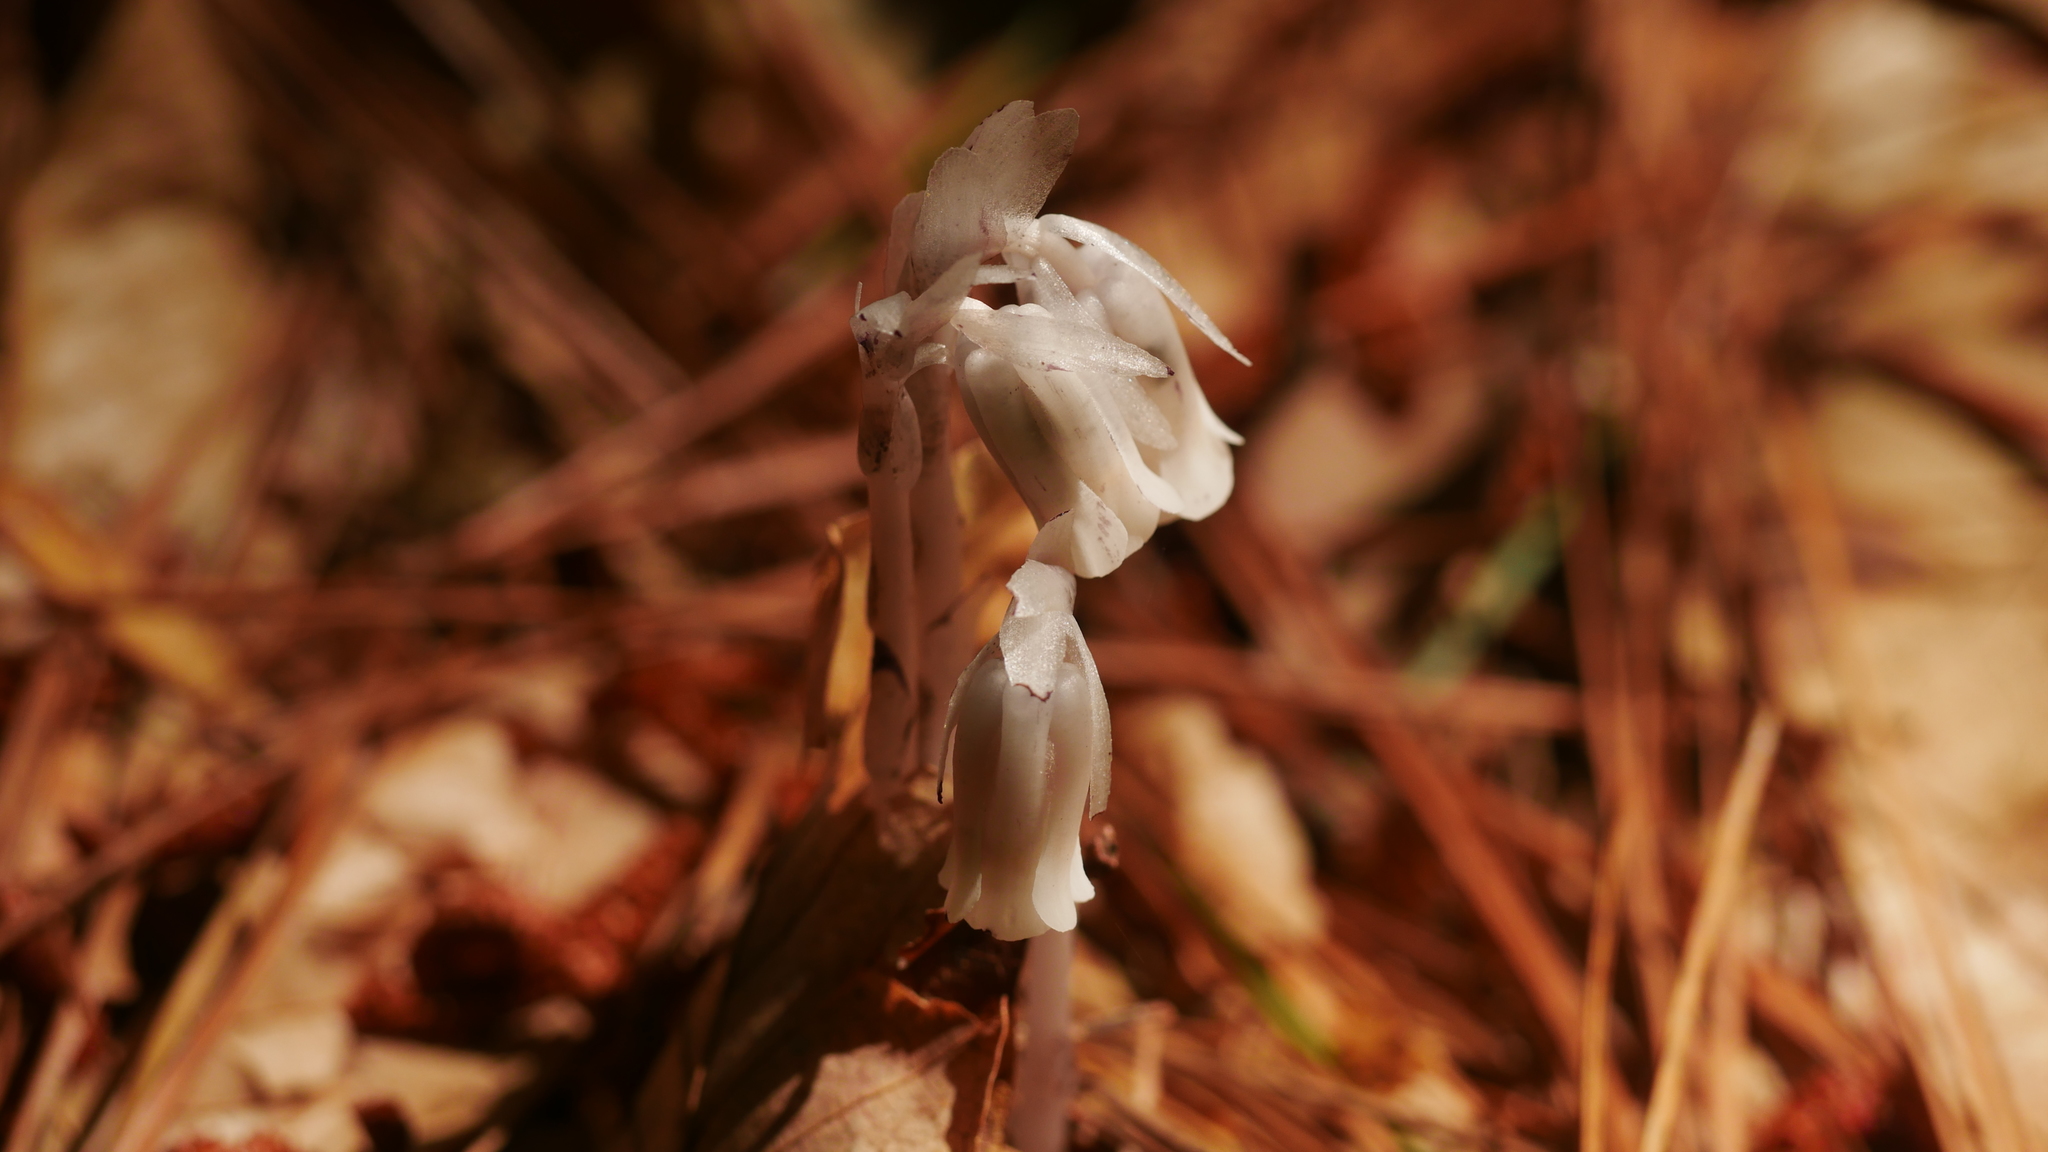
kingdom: Plantae
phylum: Tracheophyta
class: Magnoliopsida
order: Ericales
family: Ericaceae
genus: Monotropa
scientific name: Monotropa uniflora
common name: Convulsion root
